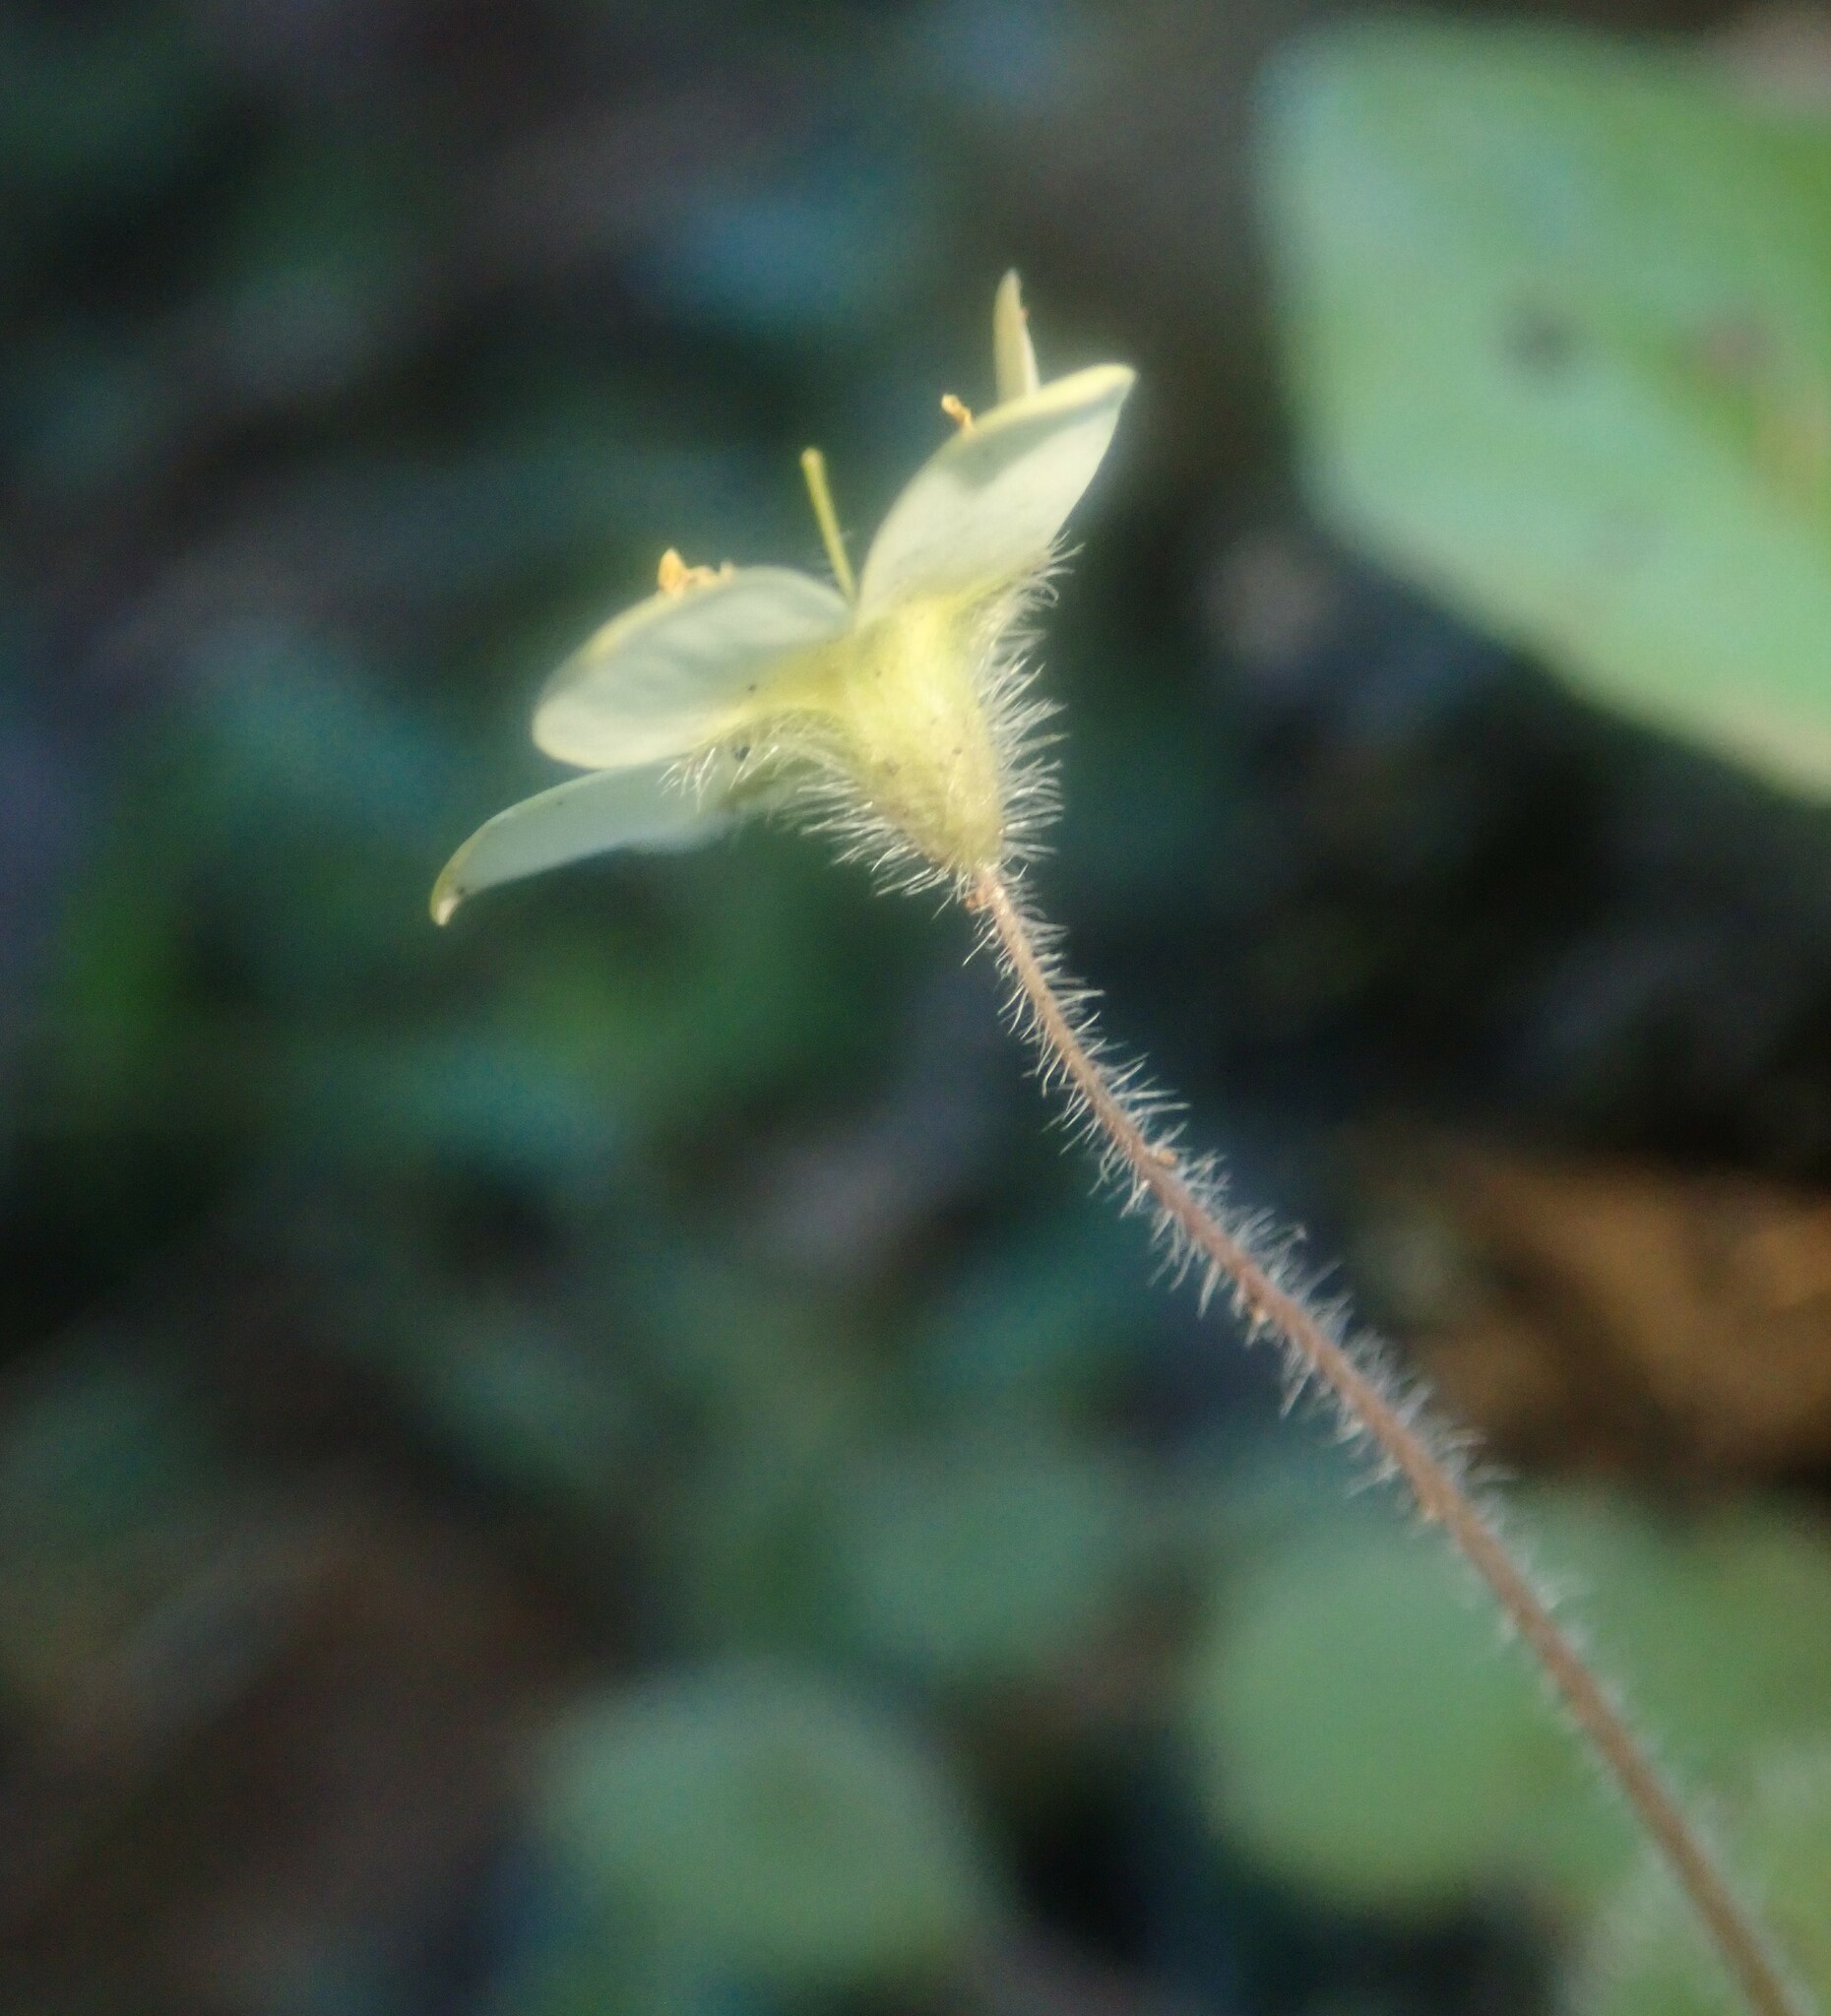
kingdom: Plantae
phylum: Tracheophyta
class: Magnoliopsida
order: Lamiales
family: Plantaginaceae
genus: Sibthorpia
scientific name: Sibthorpia peregrina
